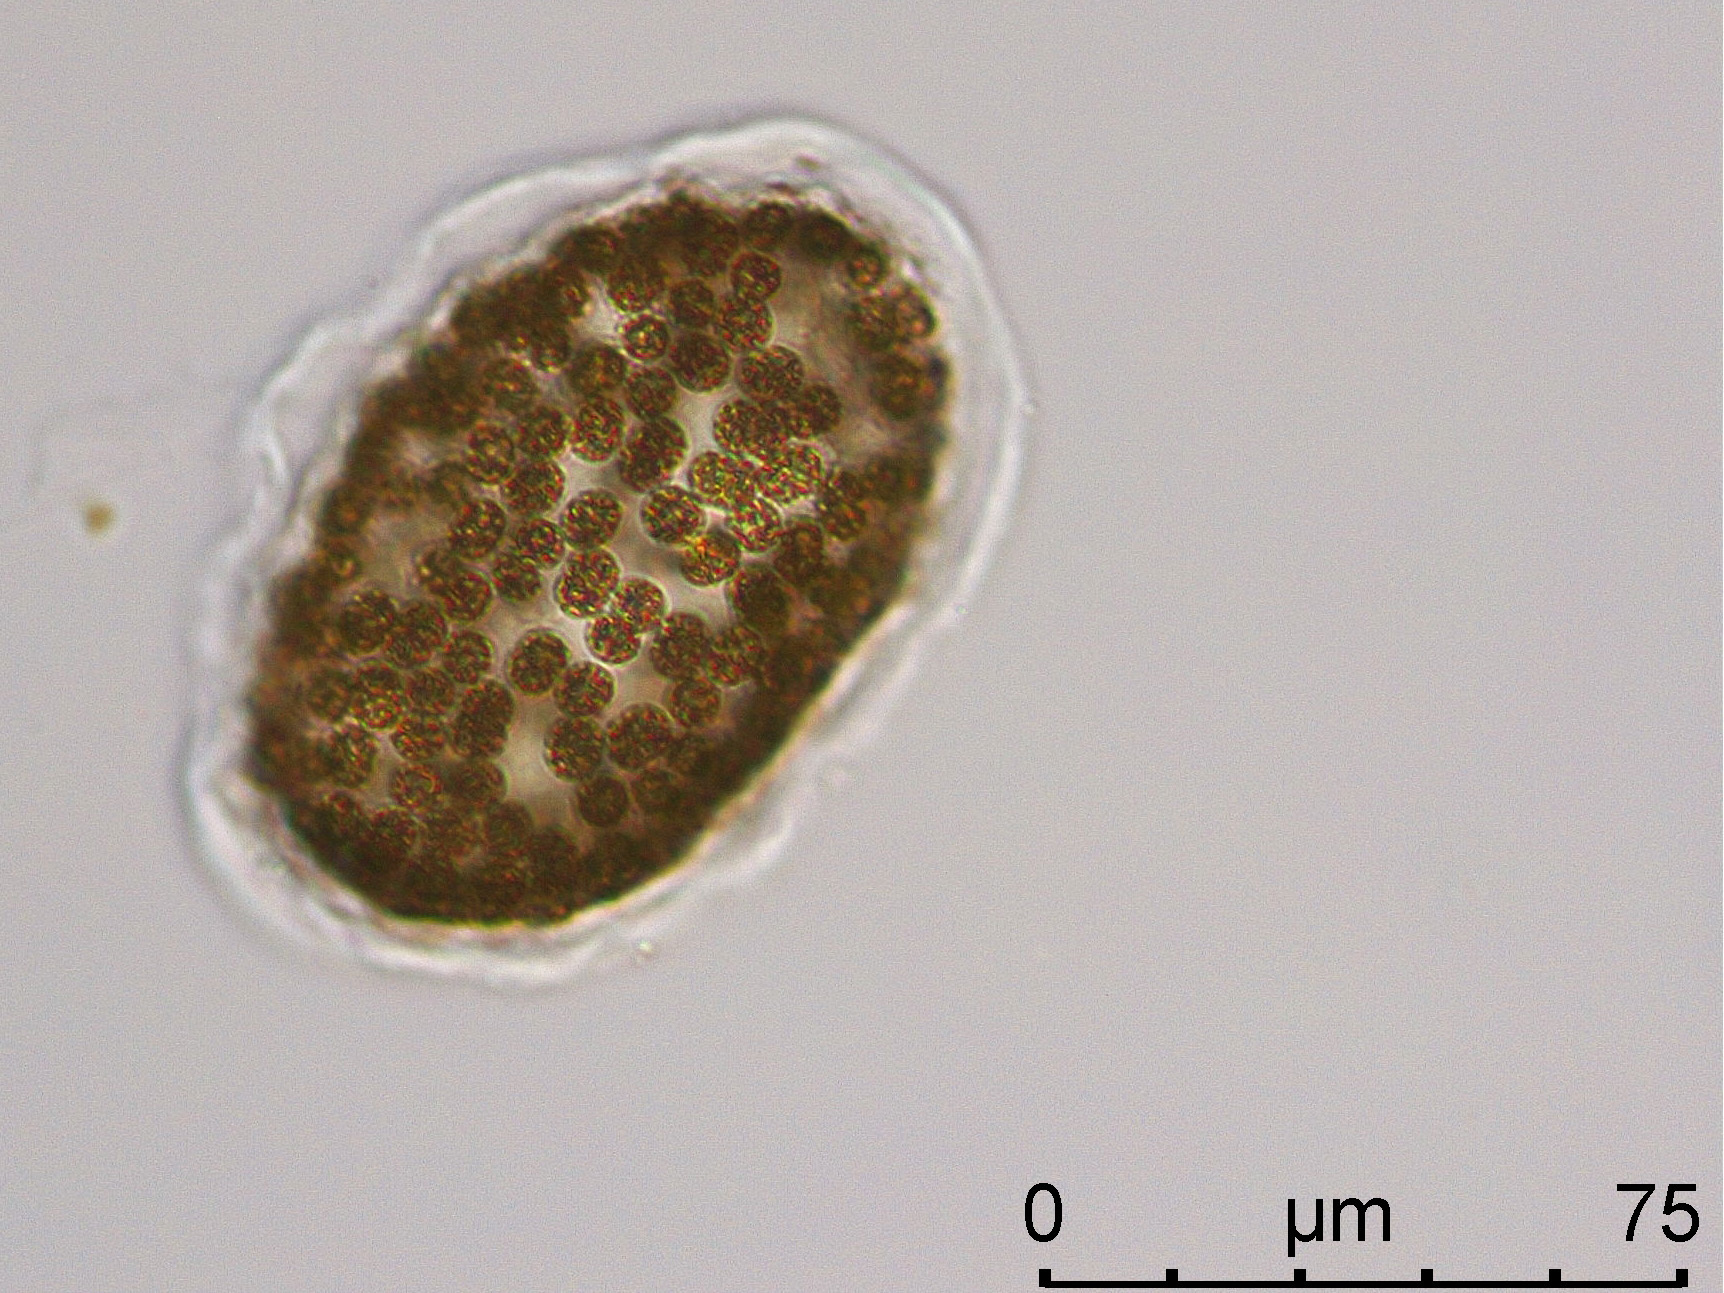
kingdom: Bacteria
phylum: Cyanobacteria
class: Cyanobacteriia
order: Cyanobacteriales
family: Microcystaceae
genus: Microcystis
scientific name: Microcystis wesenbergii
